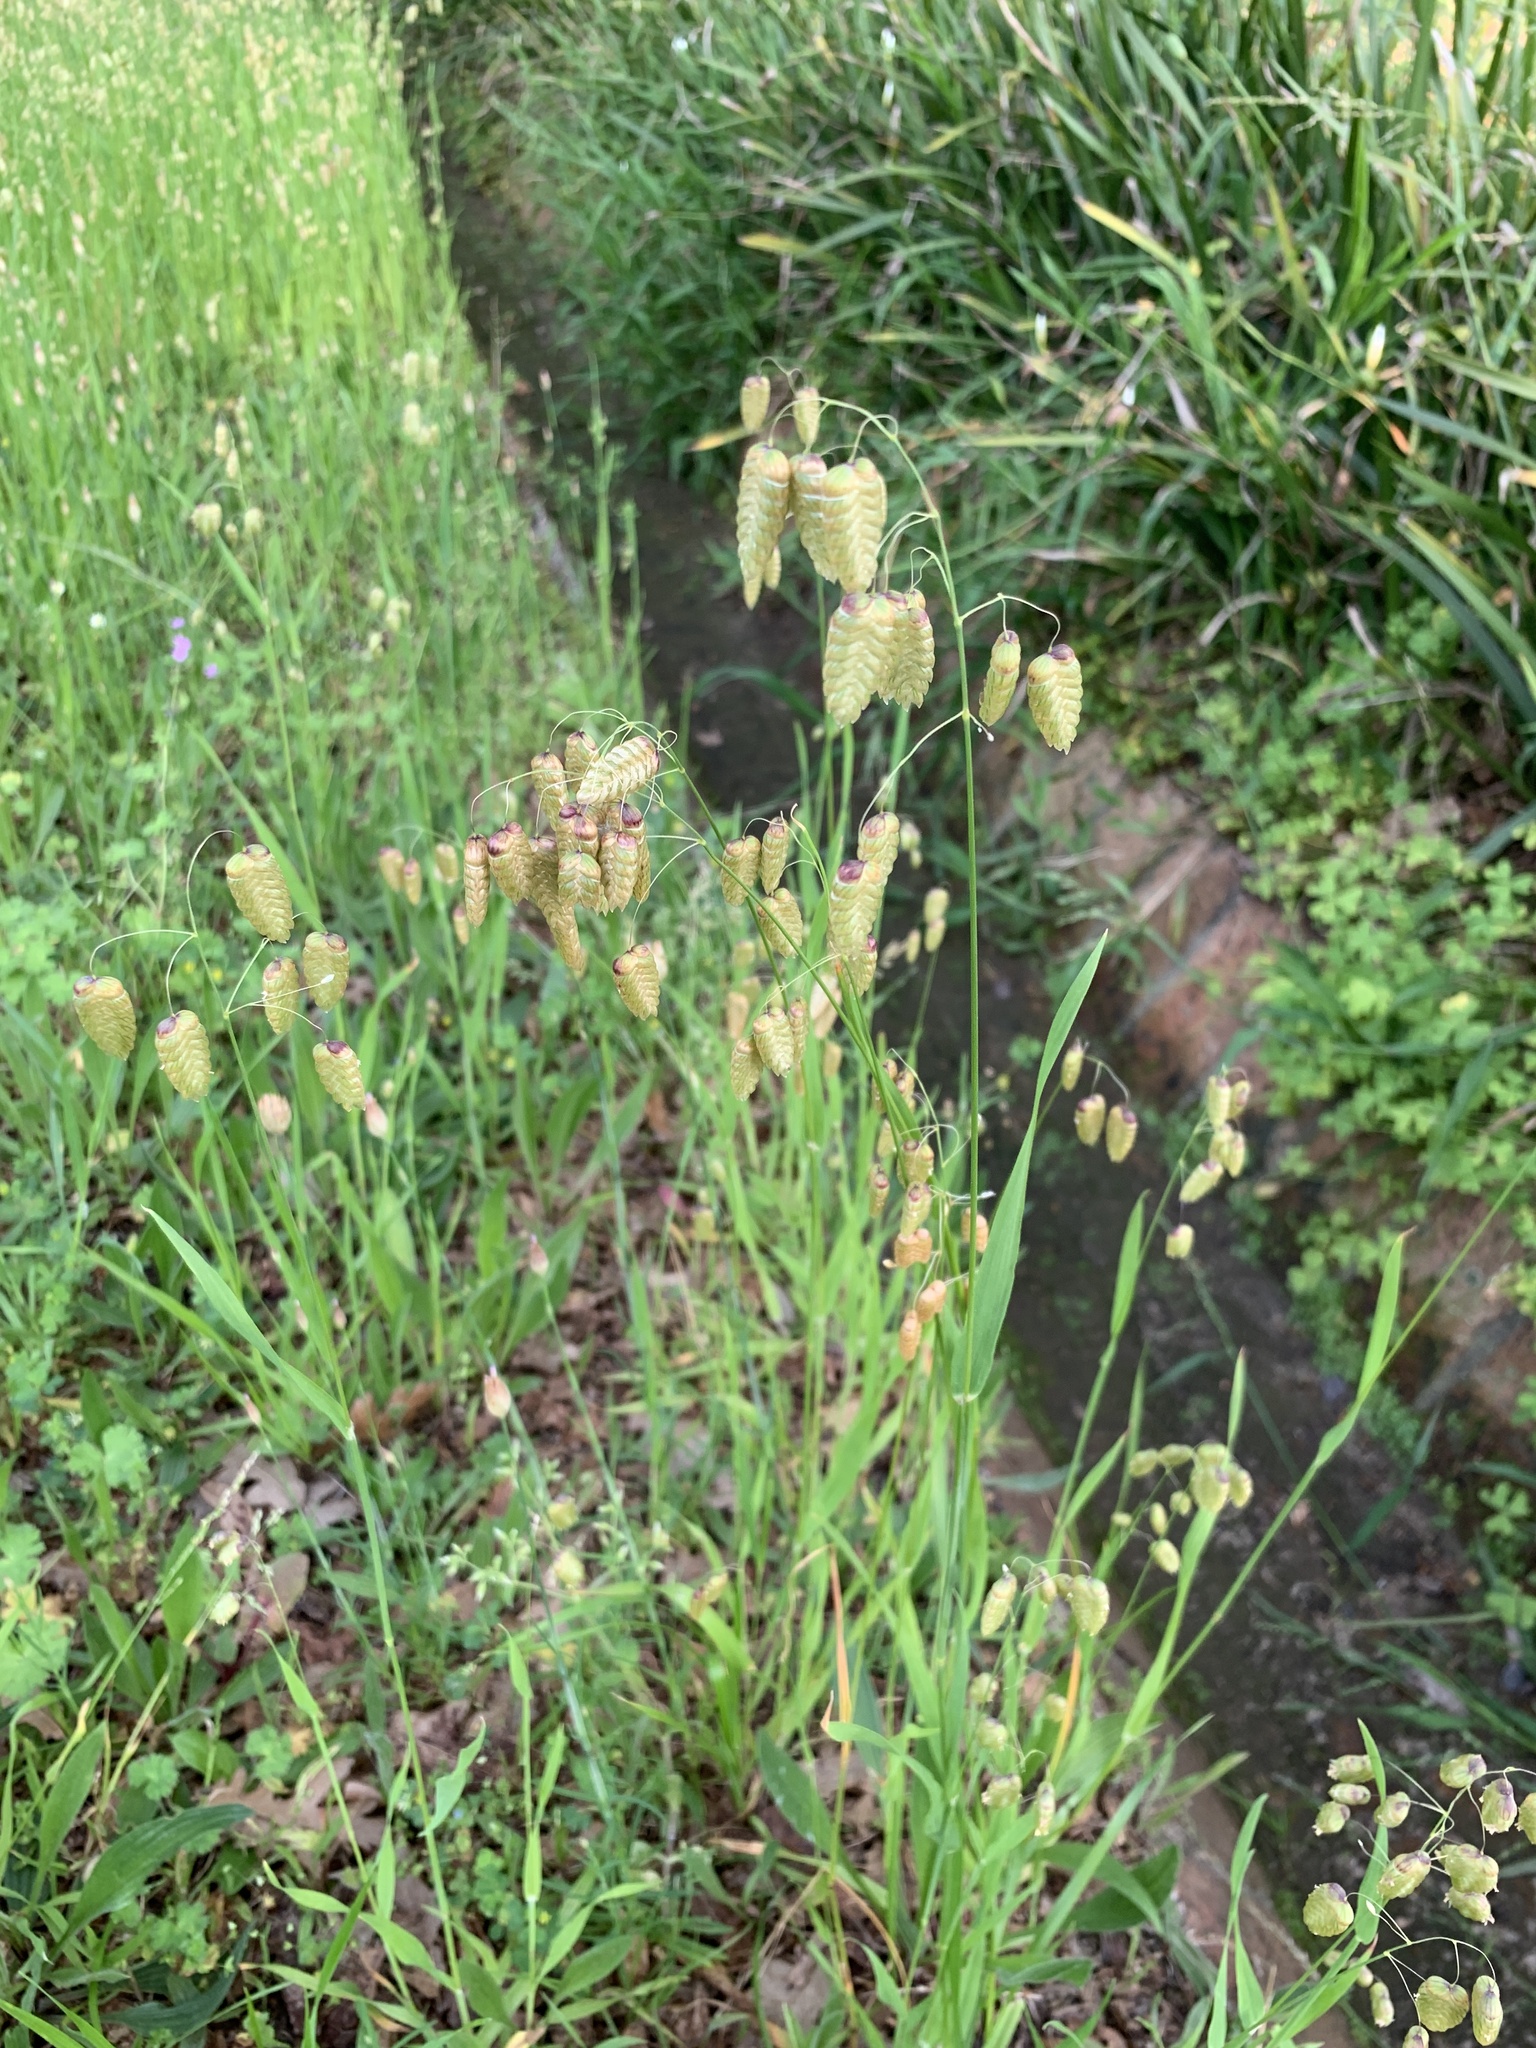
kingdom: Plantae
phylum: Tracheophyta
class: Liliopsida
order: Poales
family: Poaceae
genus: Briza
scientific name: Briza maxima
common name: Big quakinggrass
